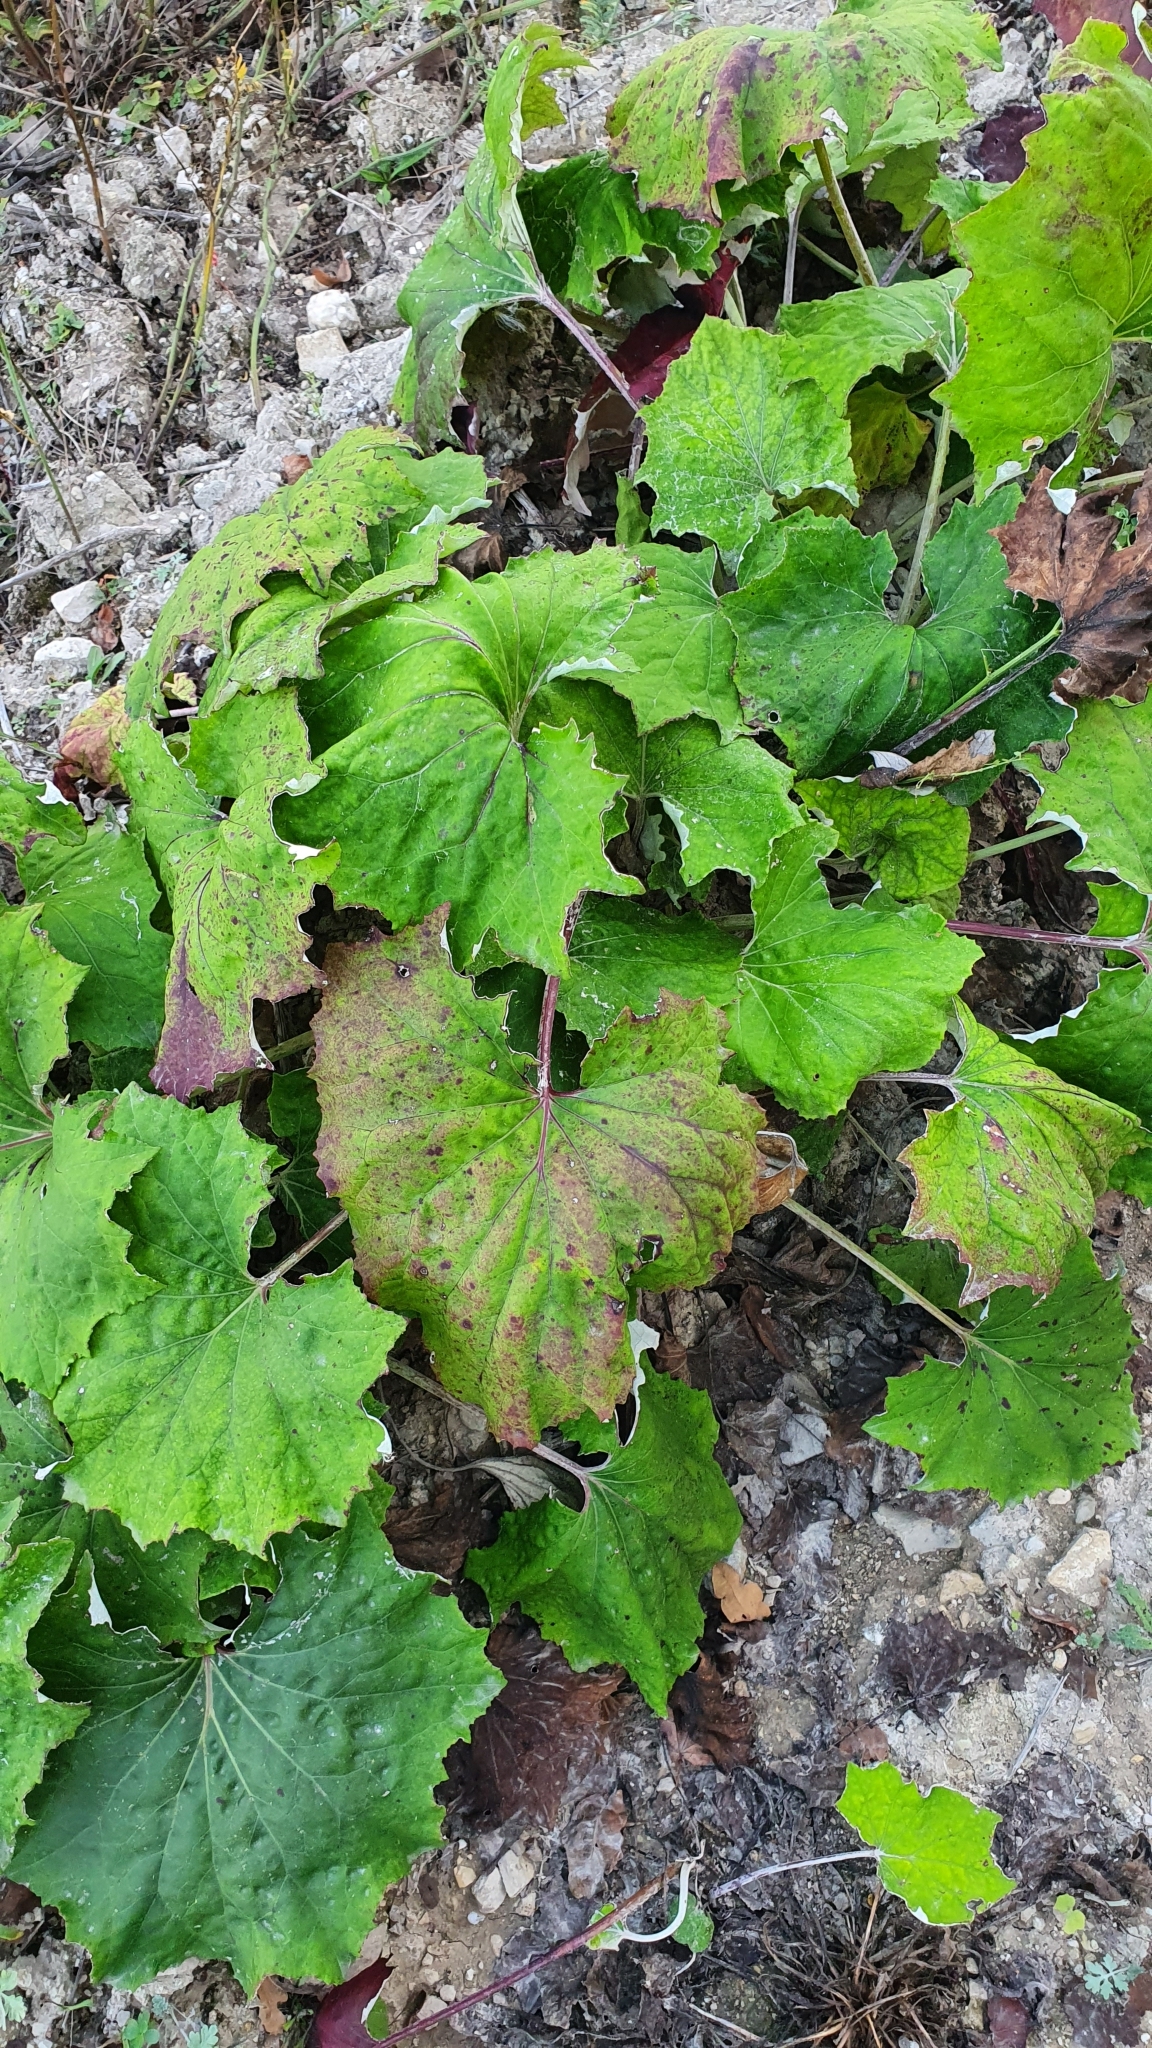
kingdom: Plantae
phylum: Tracheophyta
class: Magnoliopsida
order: Asterales
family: Asteraceae
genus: Tussilago
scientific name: Tussilago farfara
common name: Coltsfoot
